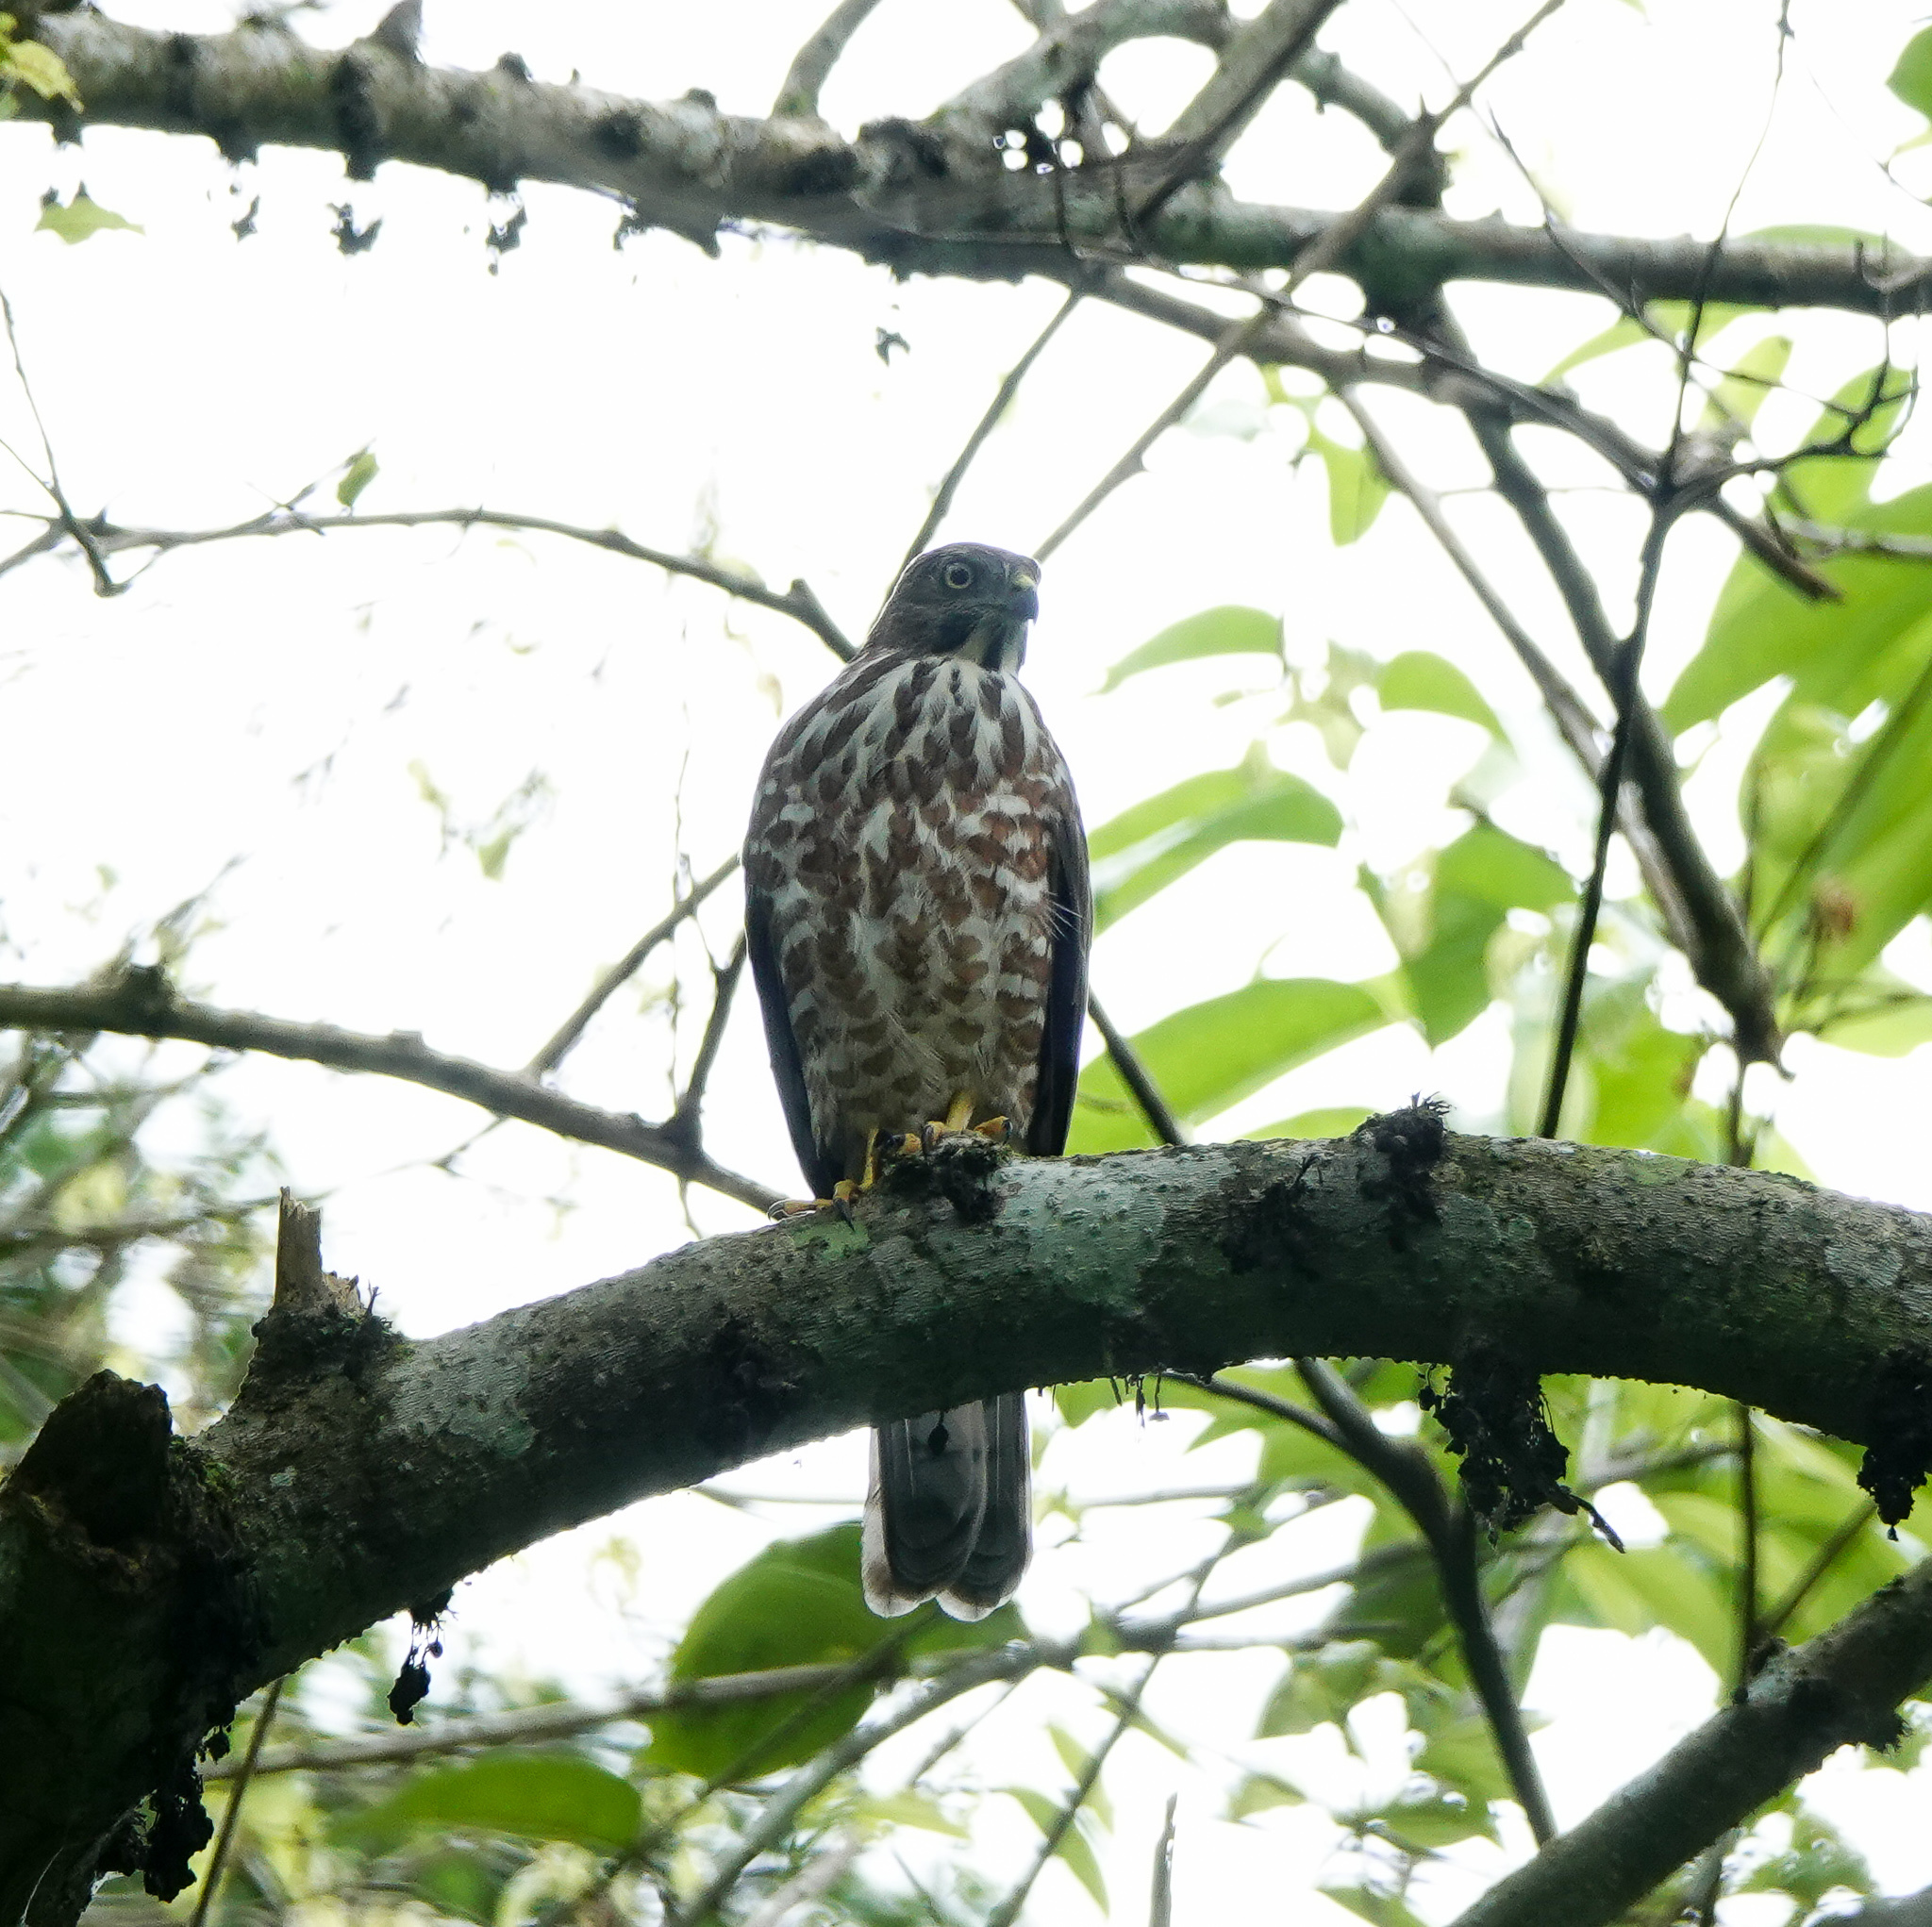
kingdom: Animalia
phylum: Chordata
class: Aves
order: Accipitriformes
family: Accipitridae
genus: Accipiter
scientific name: Accipiter badius
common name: Shikra
